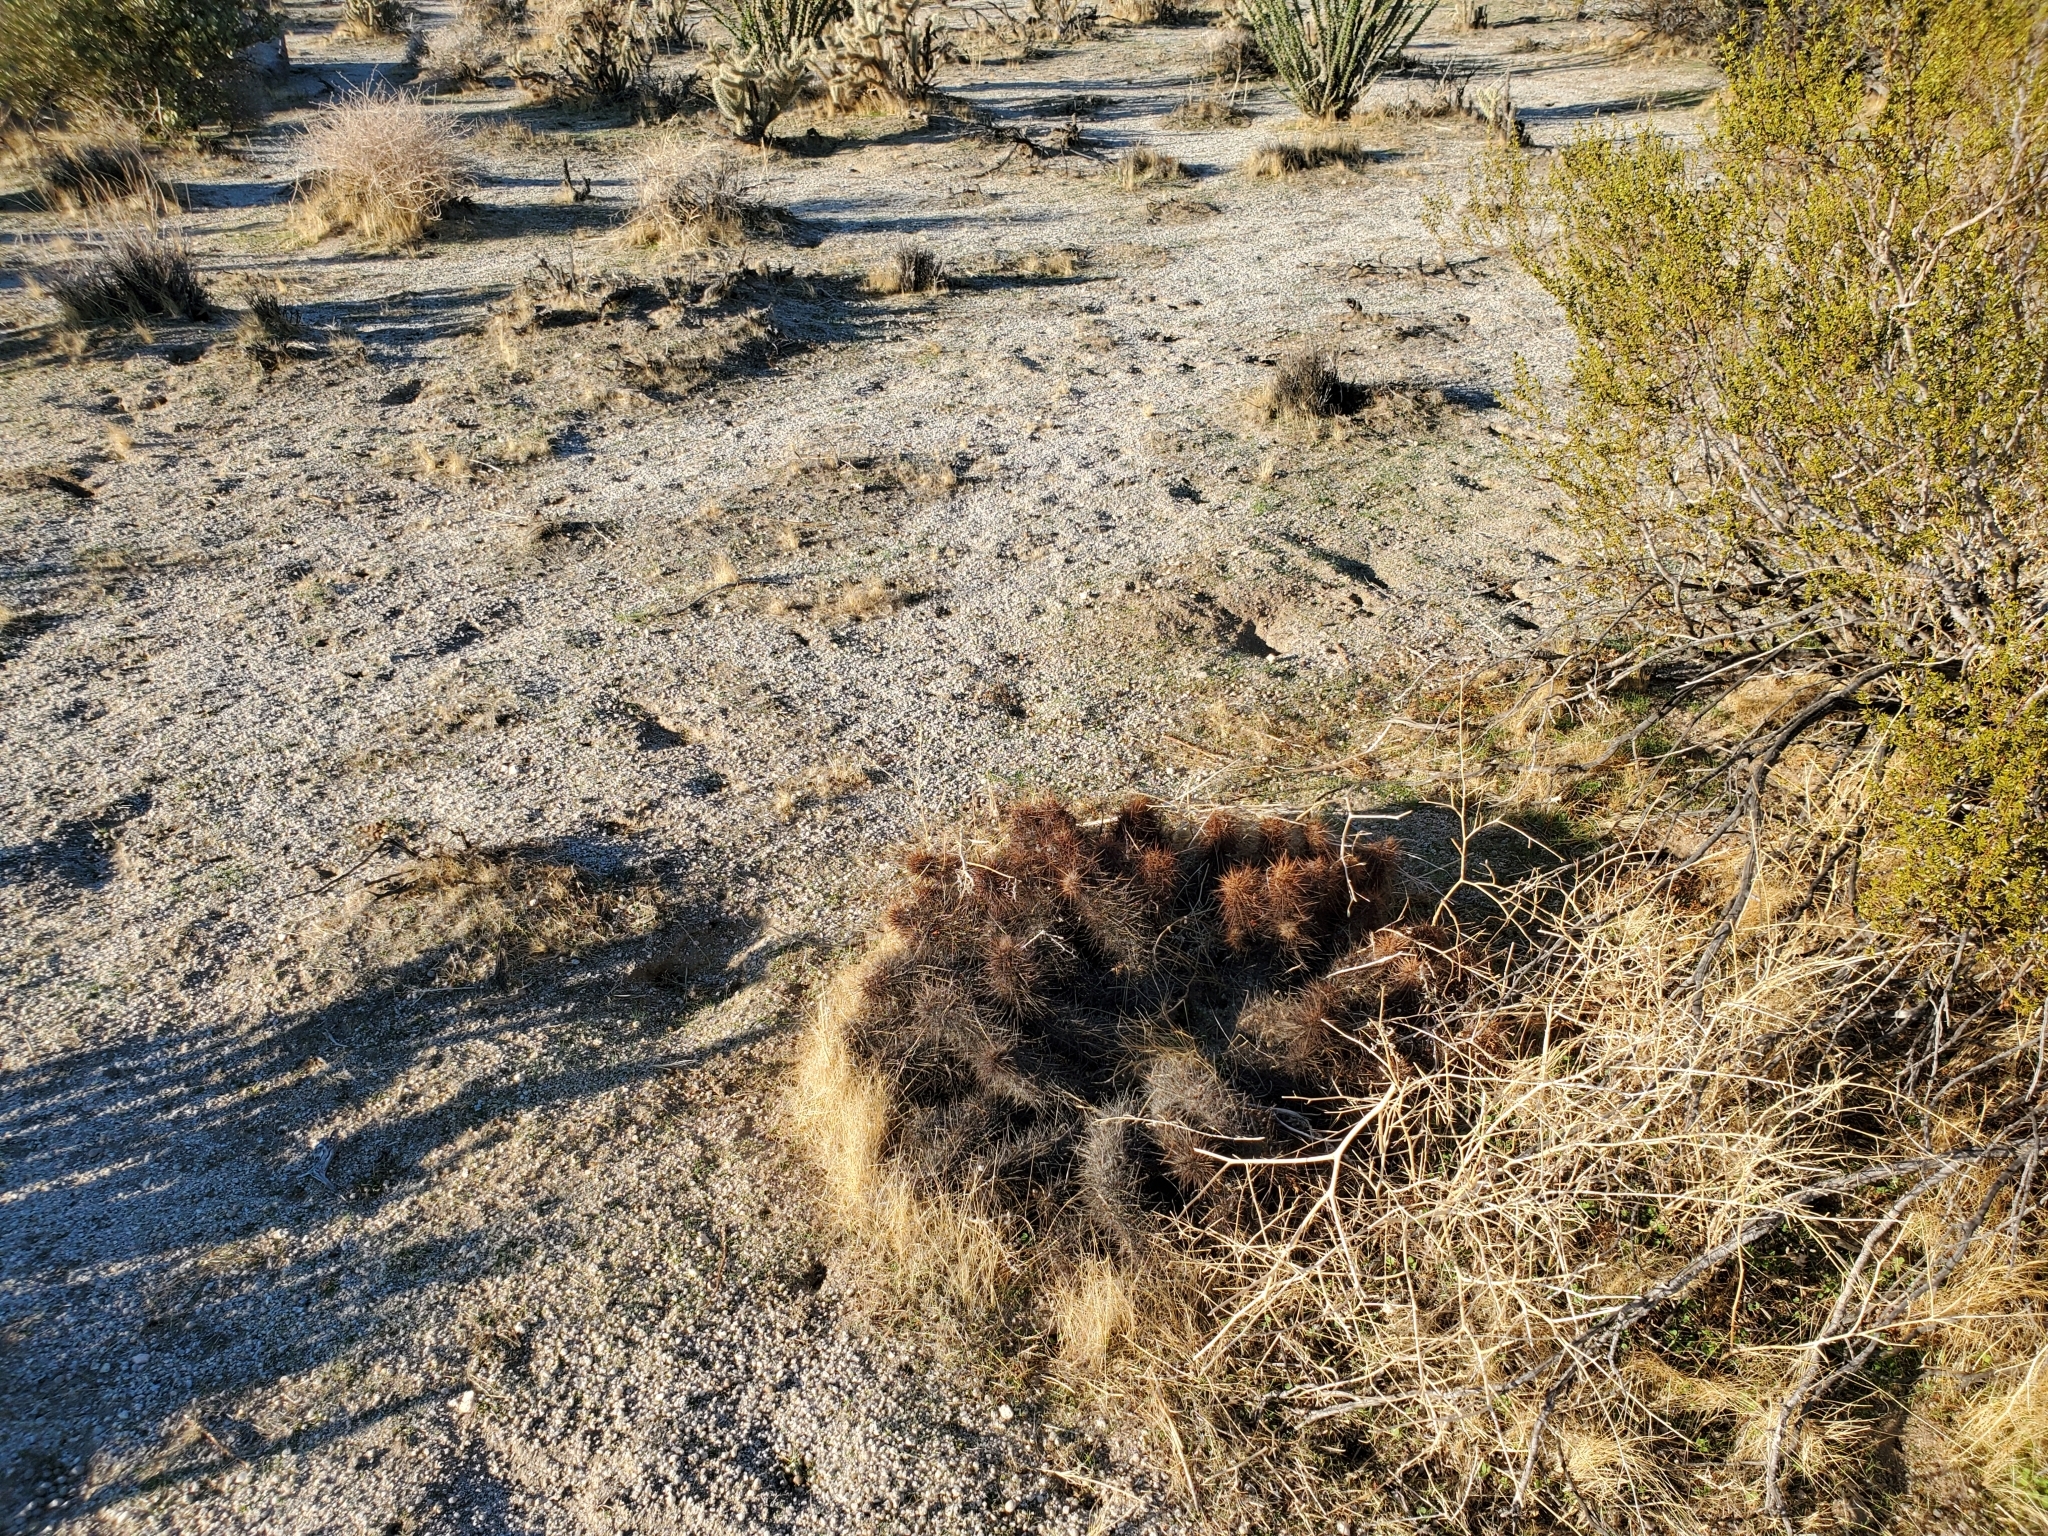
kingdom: Plantae
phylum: Tracheophyta
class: Magnoliopsida
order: Caryophyllales
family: Cactaceae
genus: Echinocereus
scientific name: Echinocereus engelmannii
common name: Engelmann's hedgehog cactus
